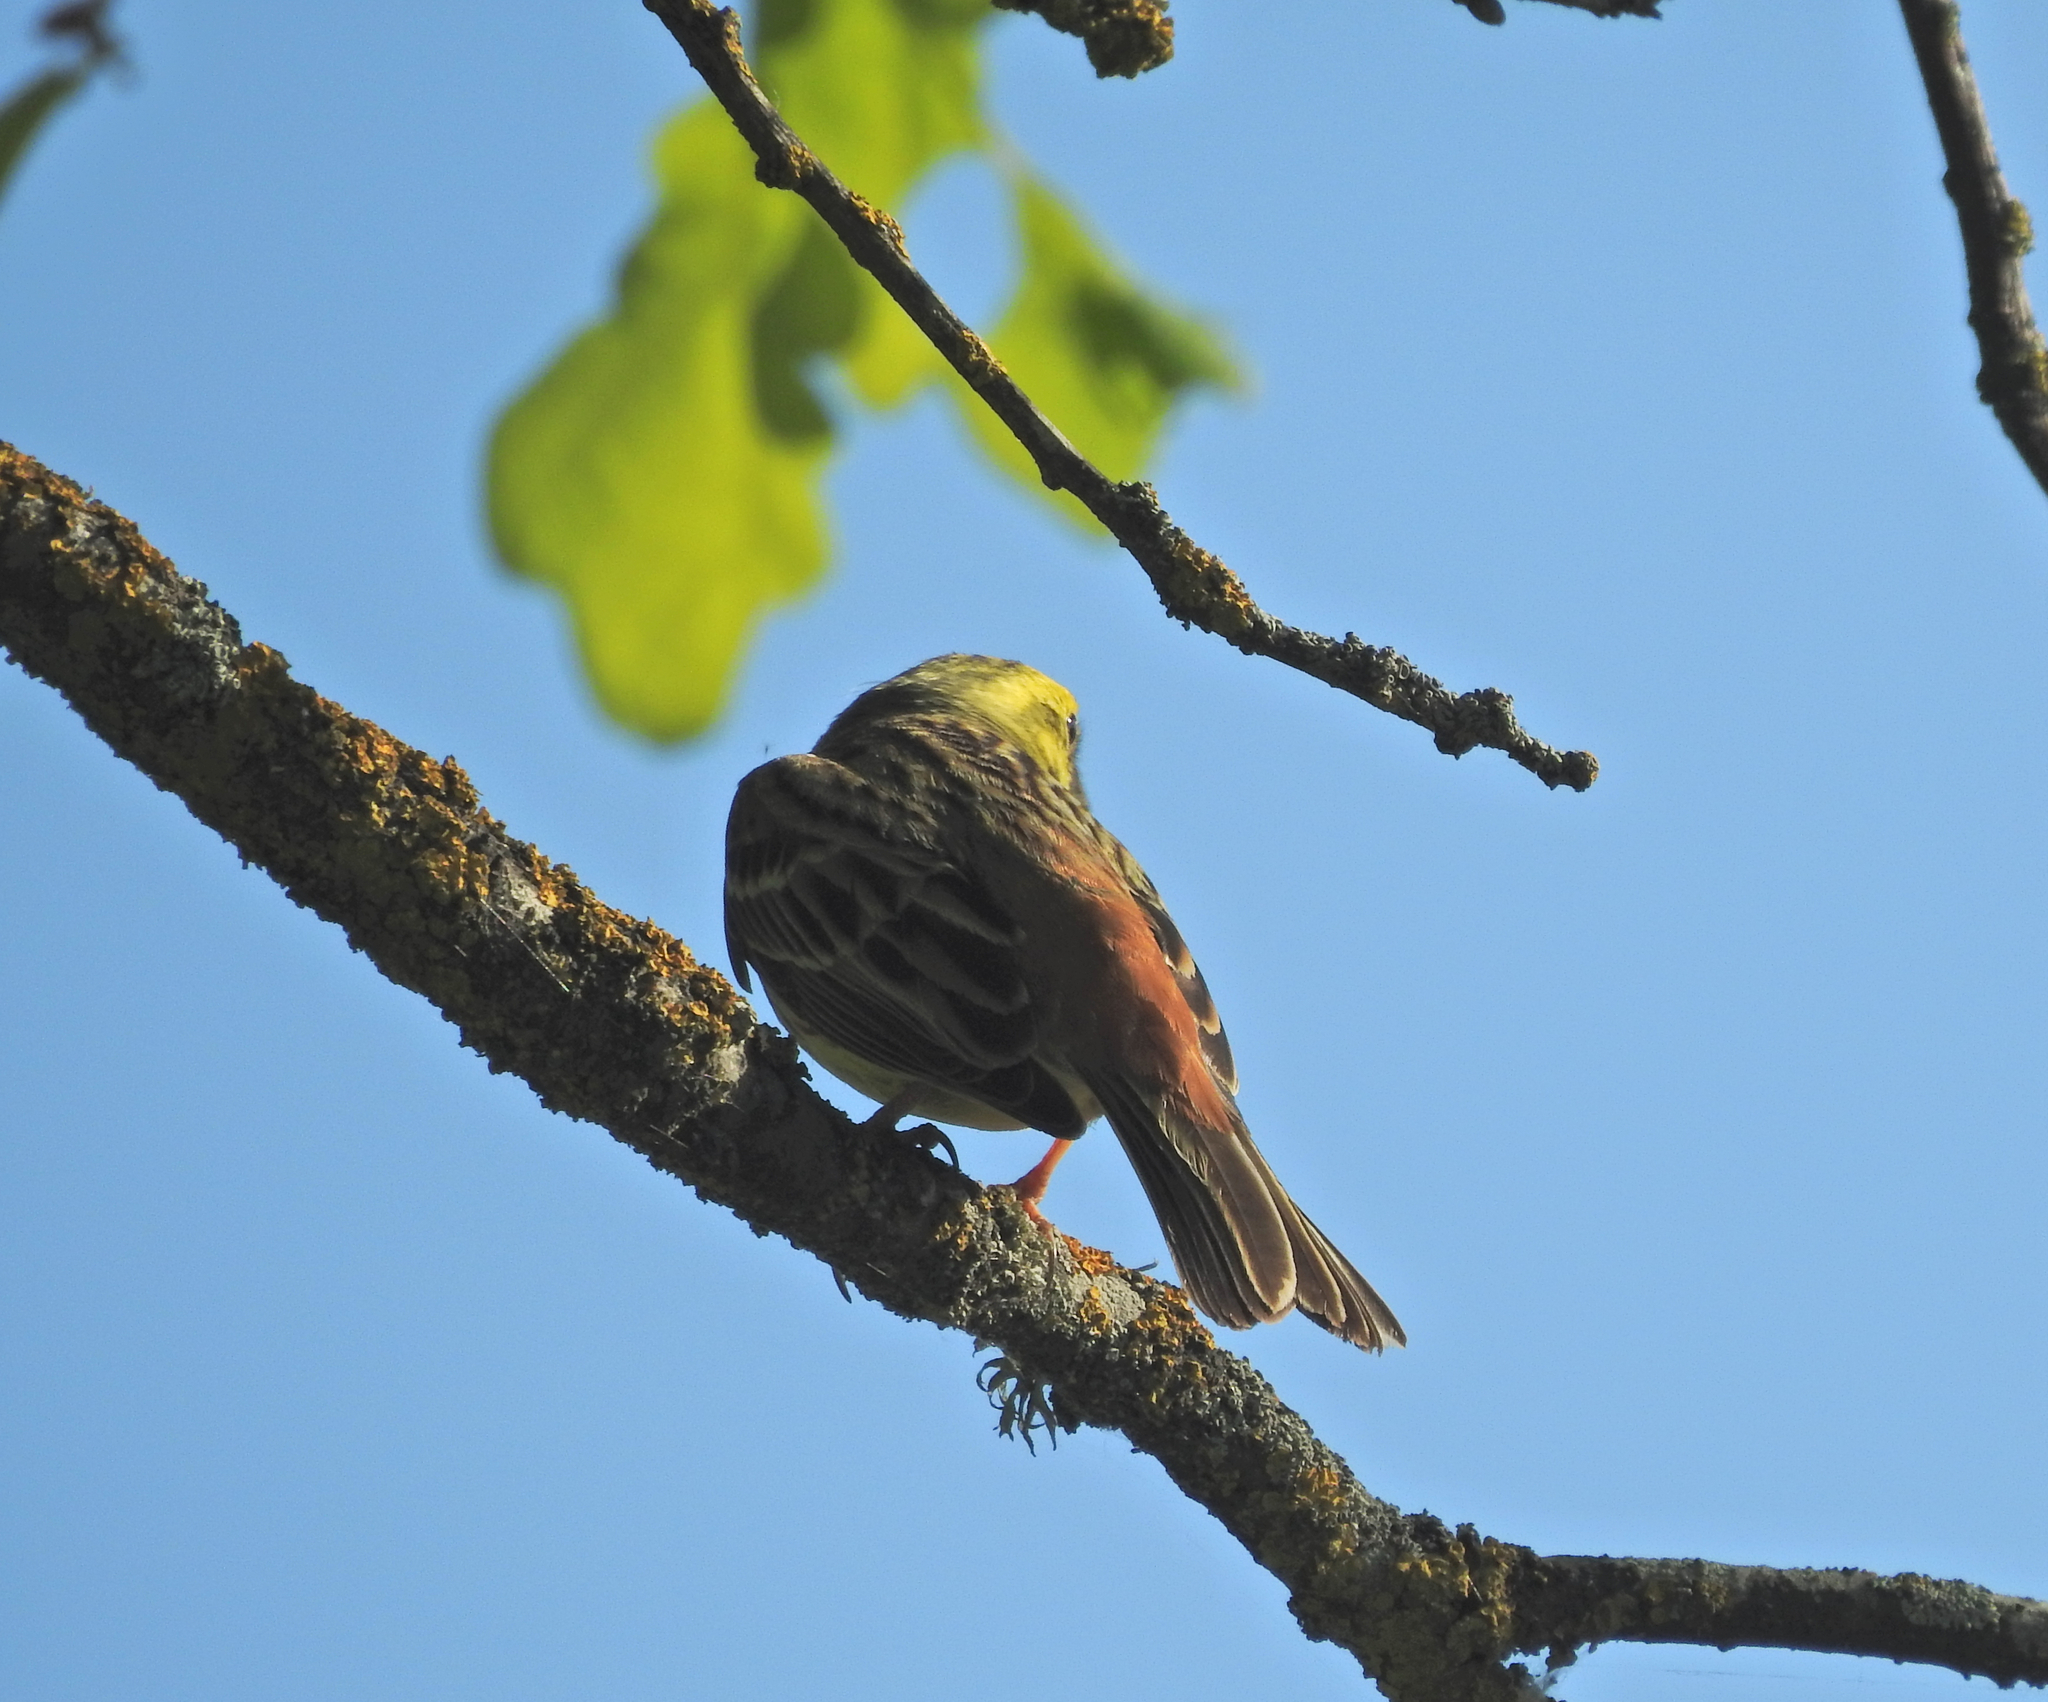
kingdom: Animalia
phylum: Chordata
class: Aves
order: Passeriformes
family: Emberizidae
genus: Emberiza
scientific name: Emberiza citrinella
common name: Yellowhammer
